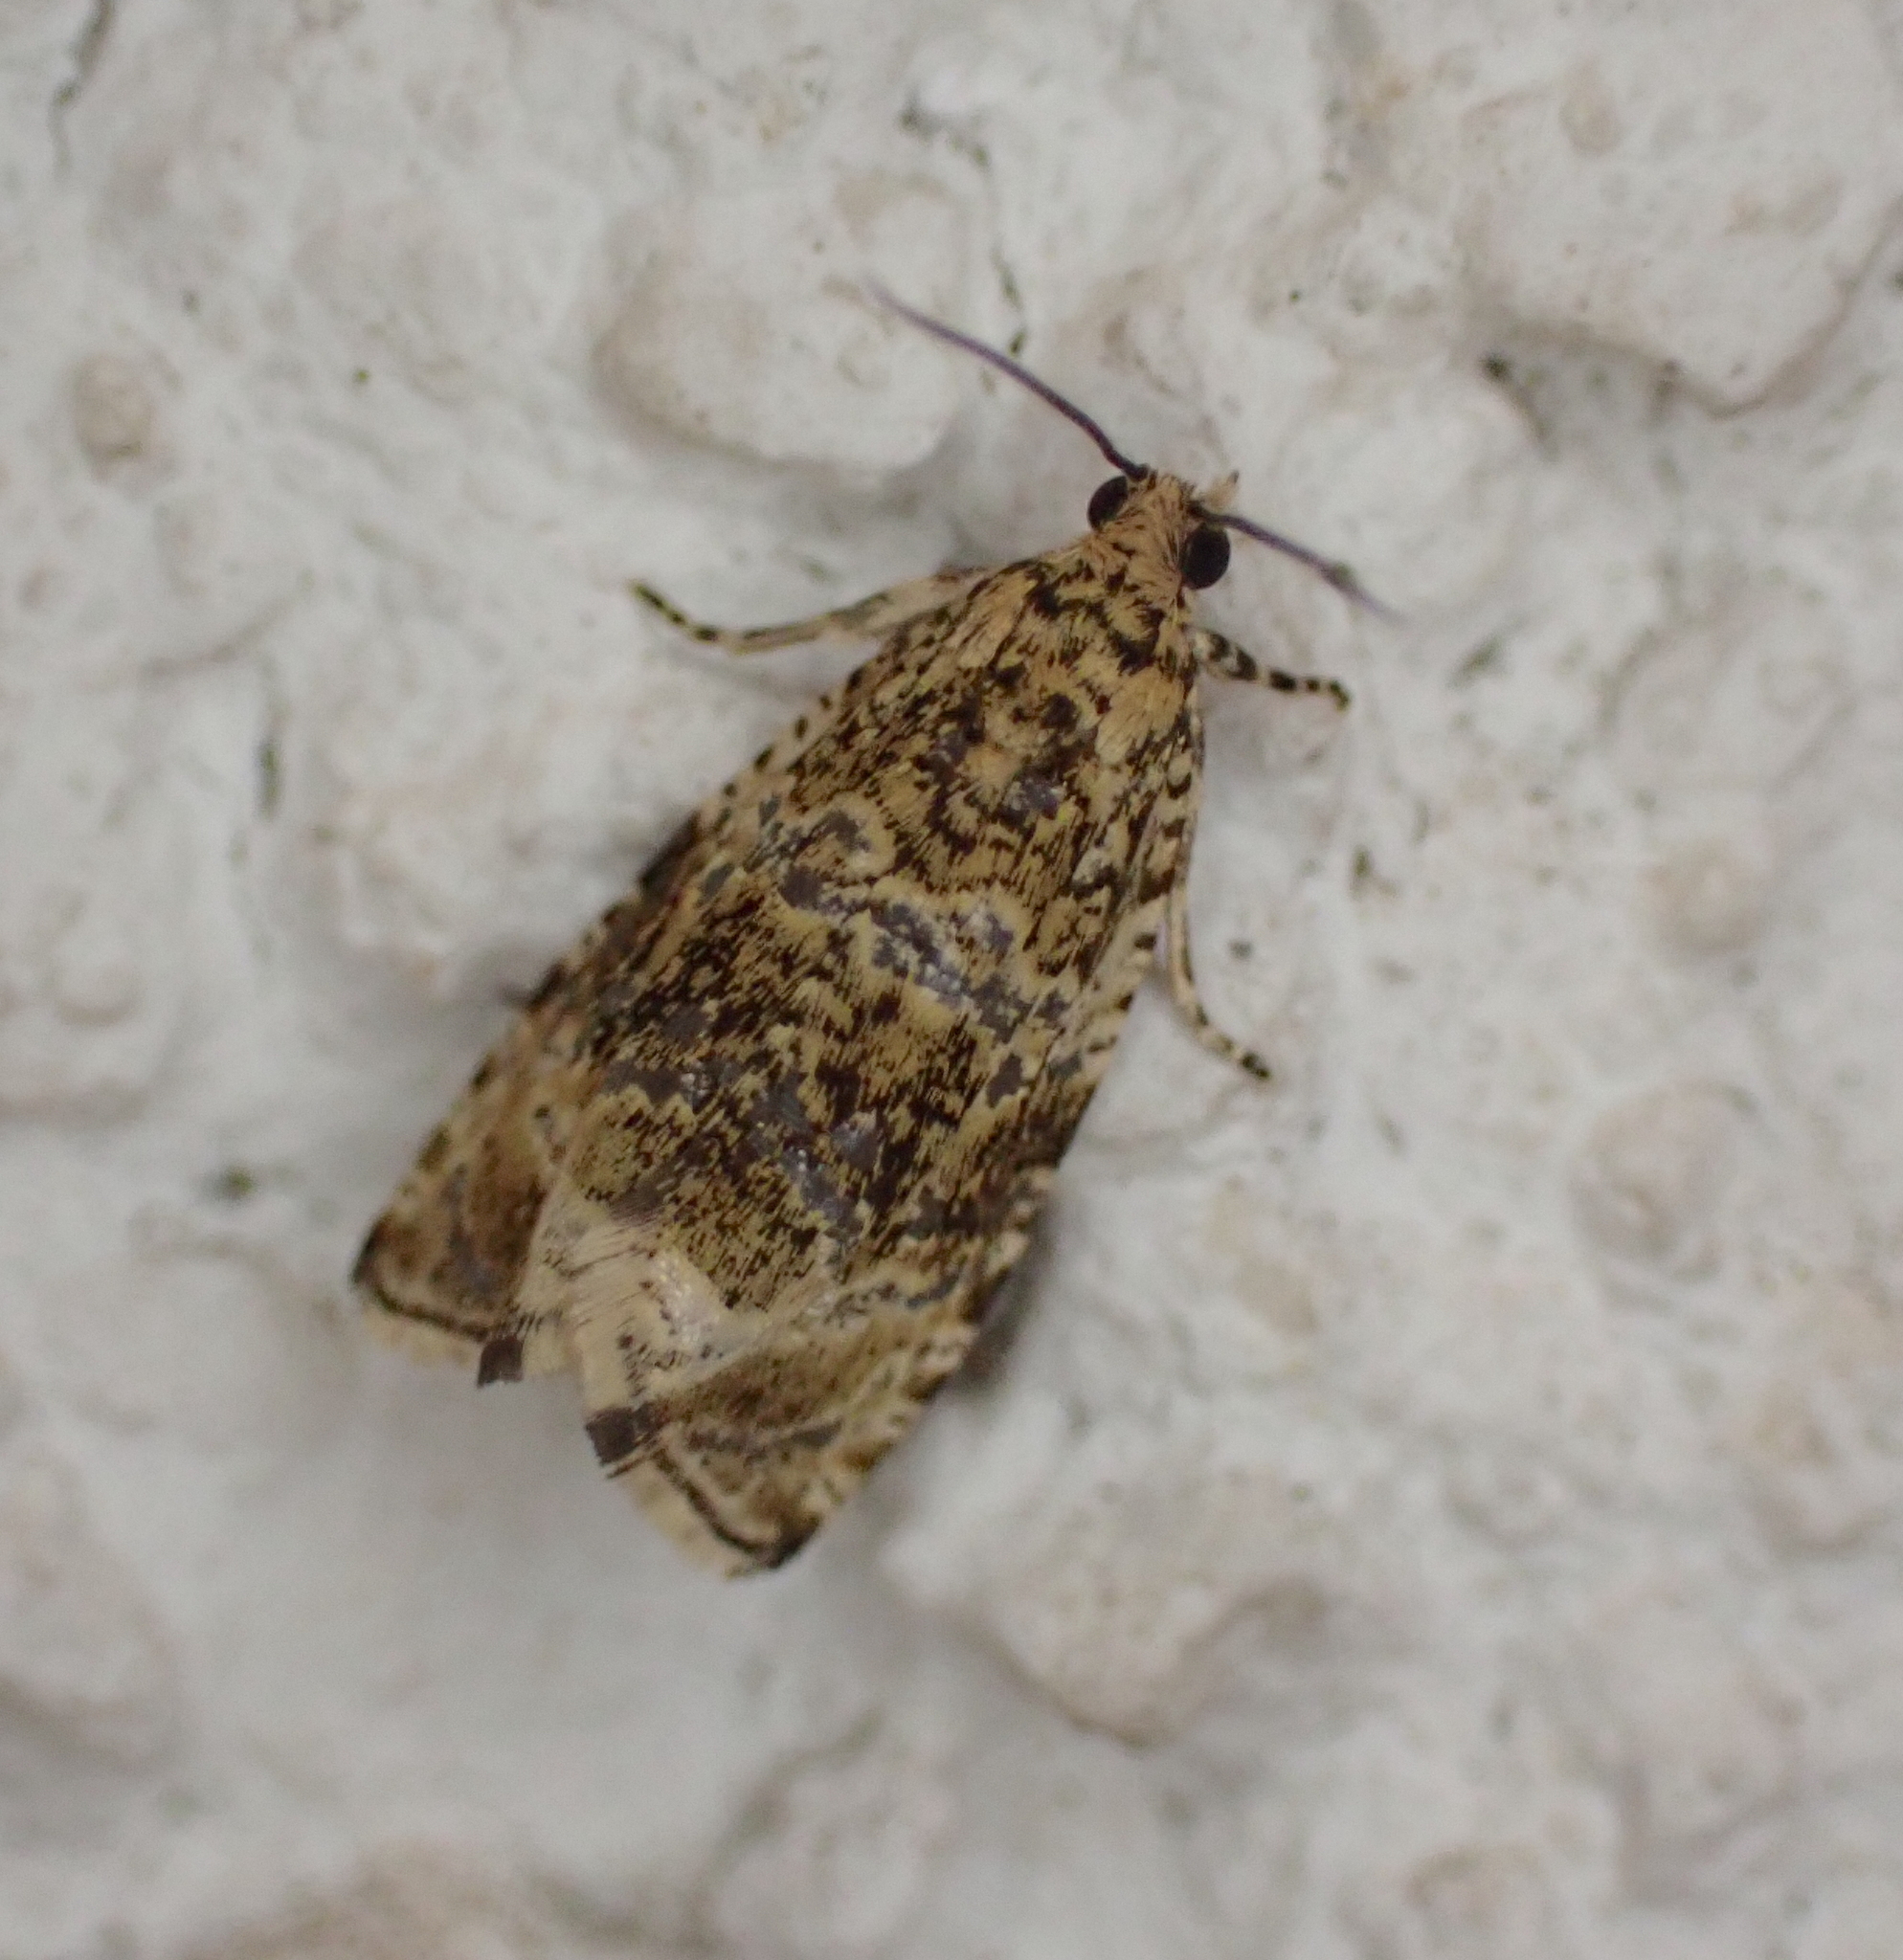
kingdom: Animalia
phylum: Arthropoda
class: Insecta
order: Lepidoptera
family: Tortricidae
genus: Syricoris
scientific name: Syricoris lacunana
